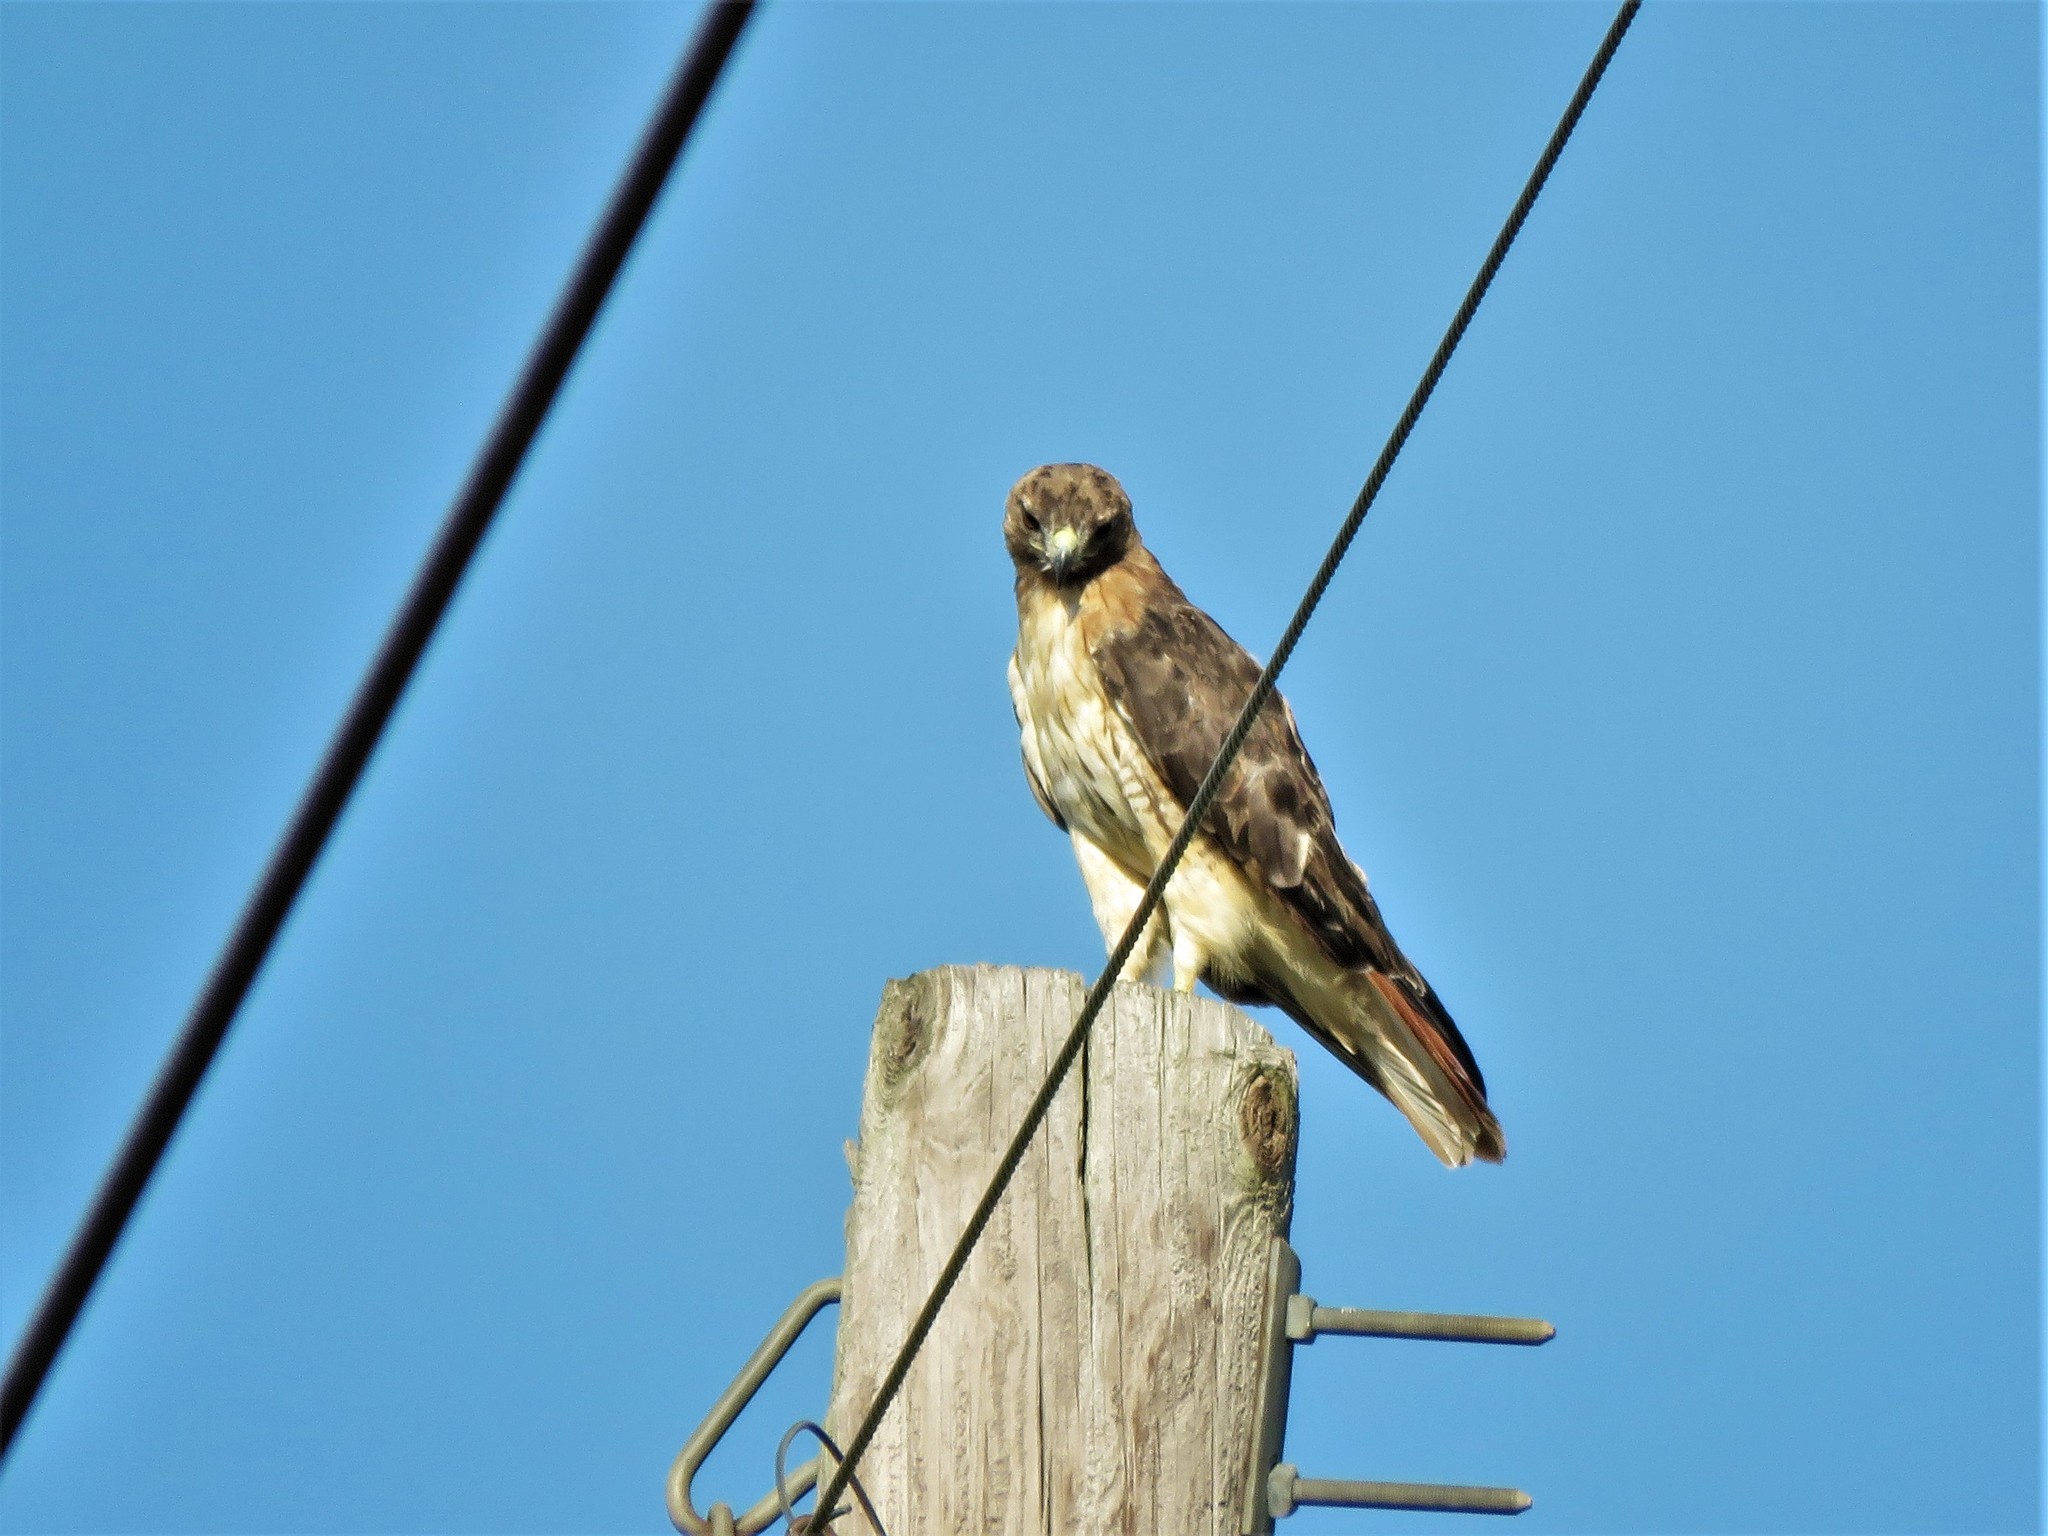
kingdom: Animalia
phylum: Chordata
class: Aves
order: Accipitriformes
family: Accipitridae
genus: Buteo
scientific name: Buteo jamaicensis
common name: Red-tailed hawk
